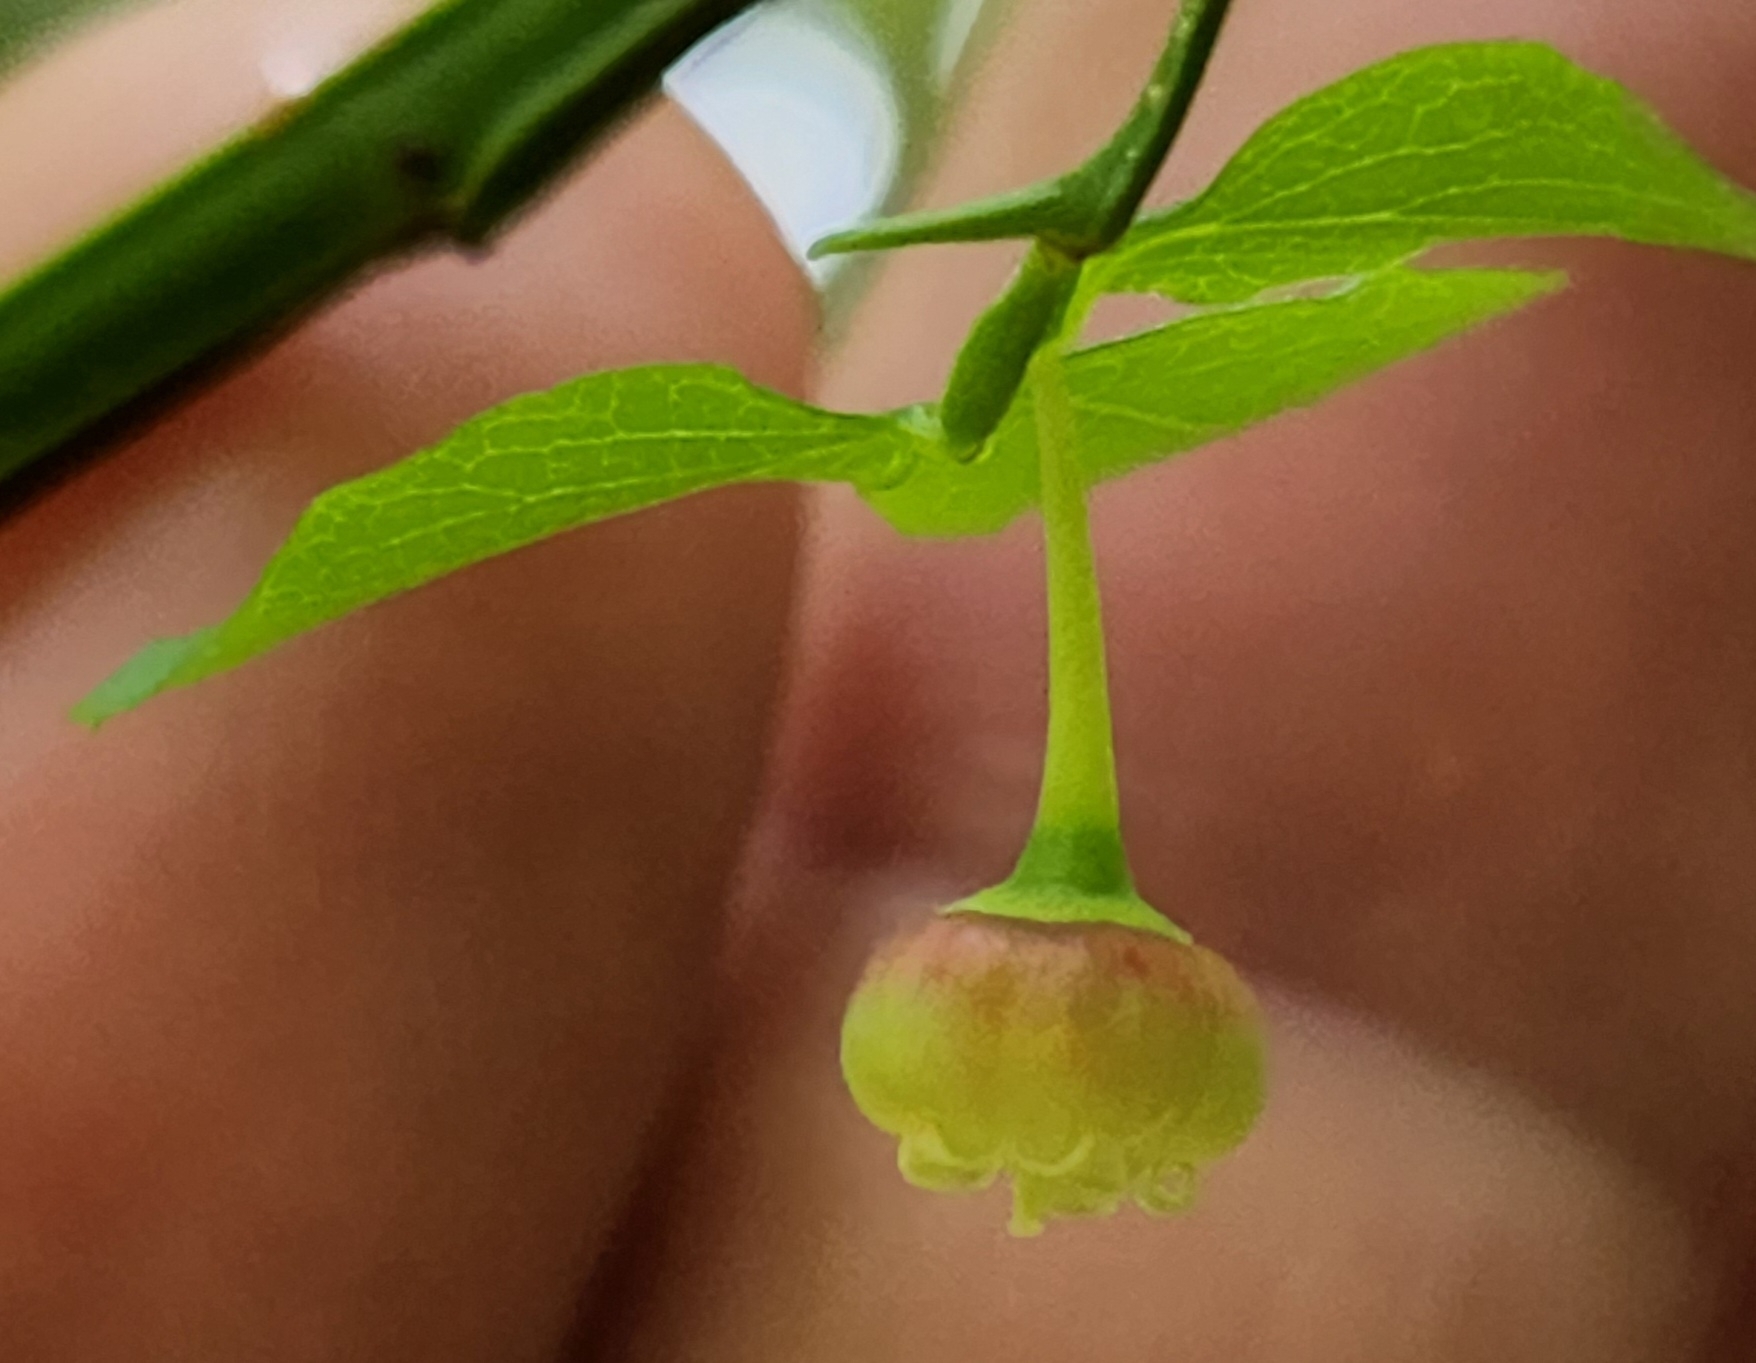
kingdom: Plantae
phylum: Tracheophyta
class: Magnoliopsida
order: Ericales
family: Ericaceae
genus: Vaccinium
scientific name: Vaccinium parvifolium
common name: Red-huckleberry
